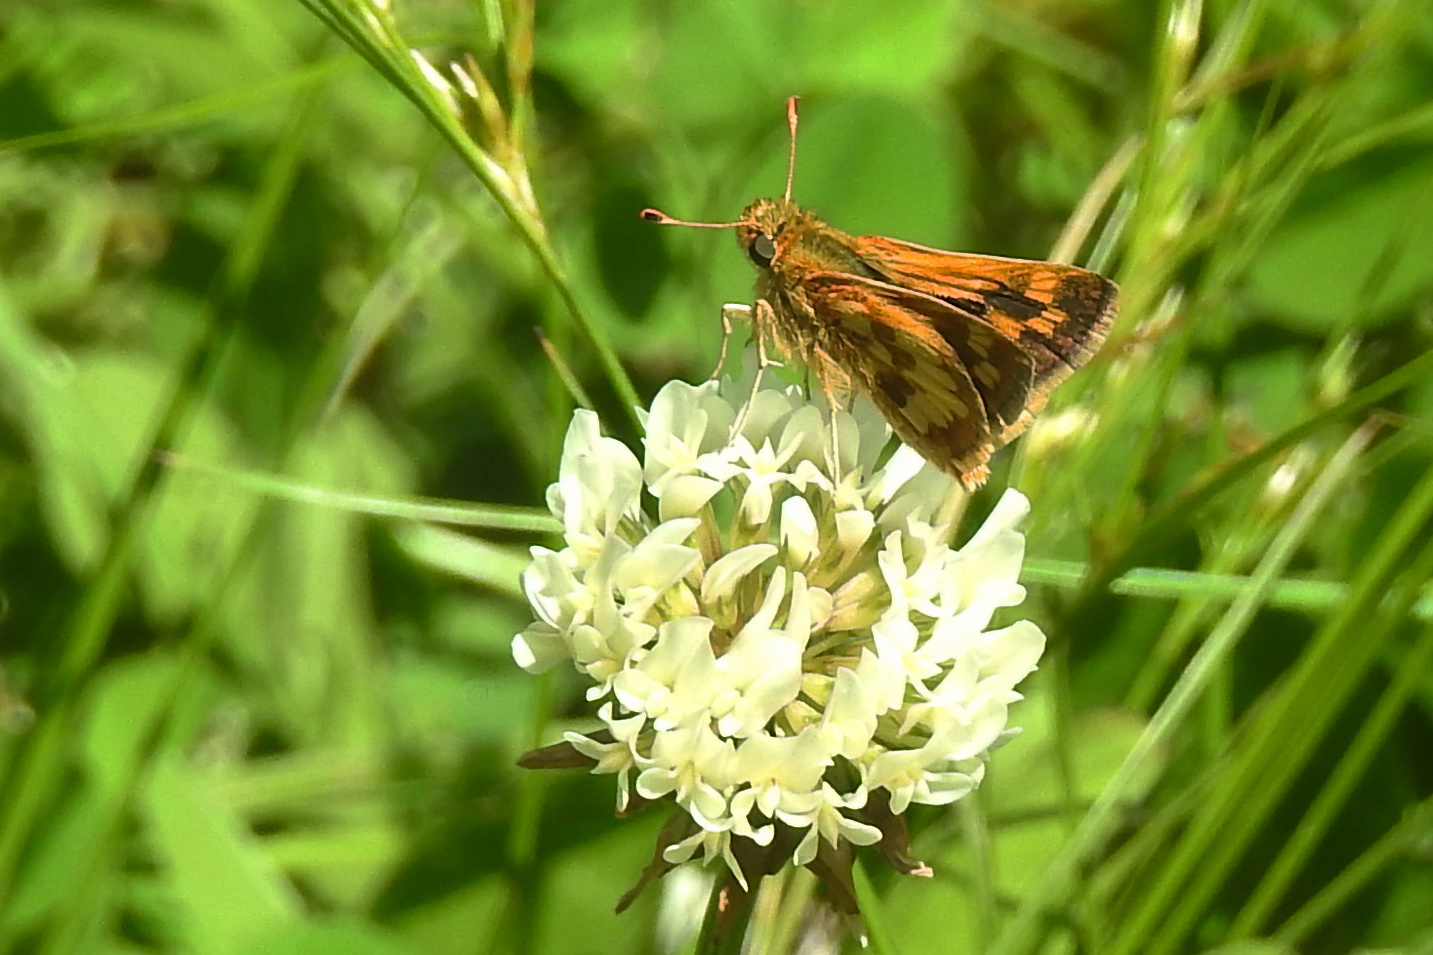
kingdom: Animalia
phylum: Arthropoda
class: Insecta
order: Lepidoptera
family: Hesperiidae
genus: Polites
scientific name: Polites coras
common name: Peck's skipper
